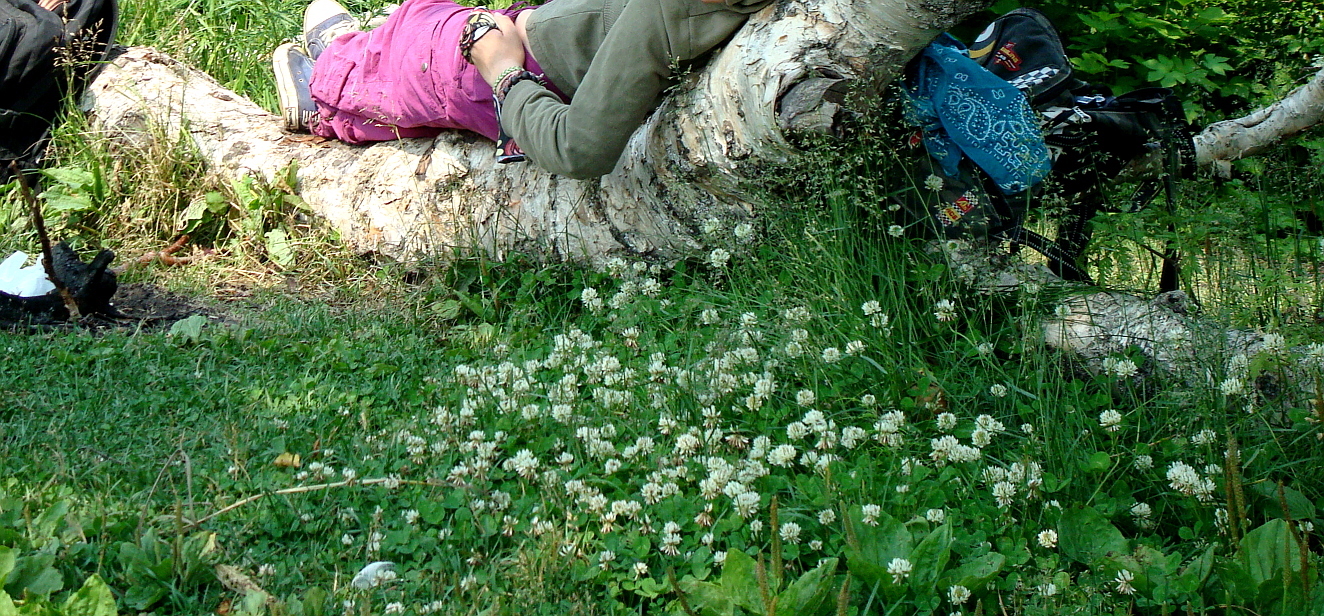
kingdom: Plantae
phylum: Tracheophyta
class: Magnoliopsida
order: Fabales
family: Fabaceae
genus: Trifolium
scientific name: Trifolium repens
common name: White clover
